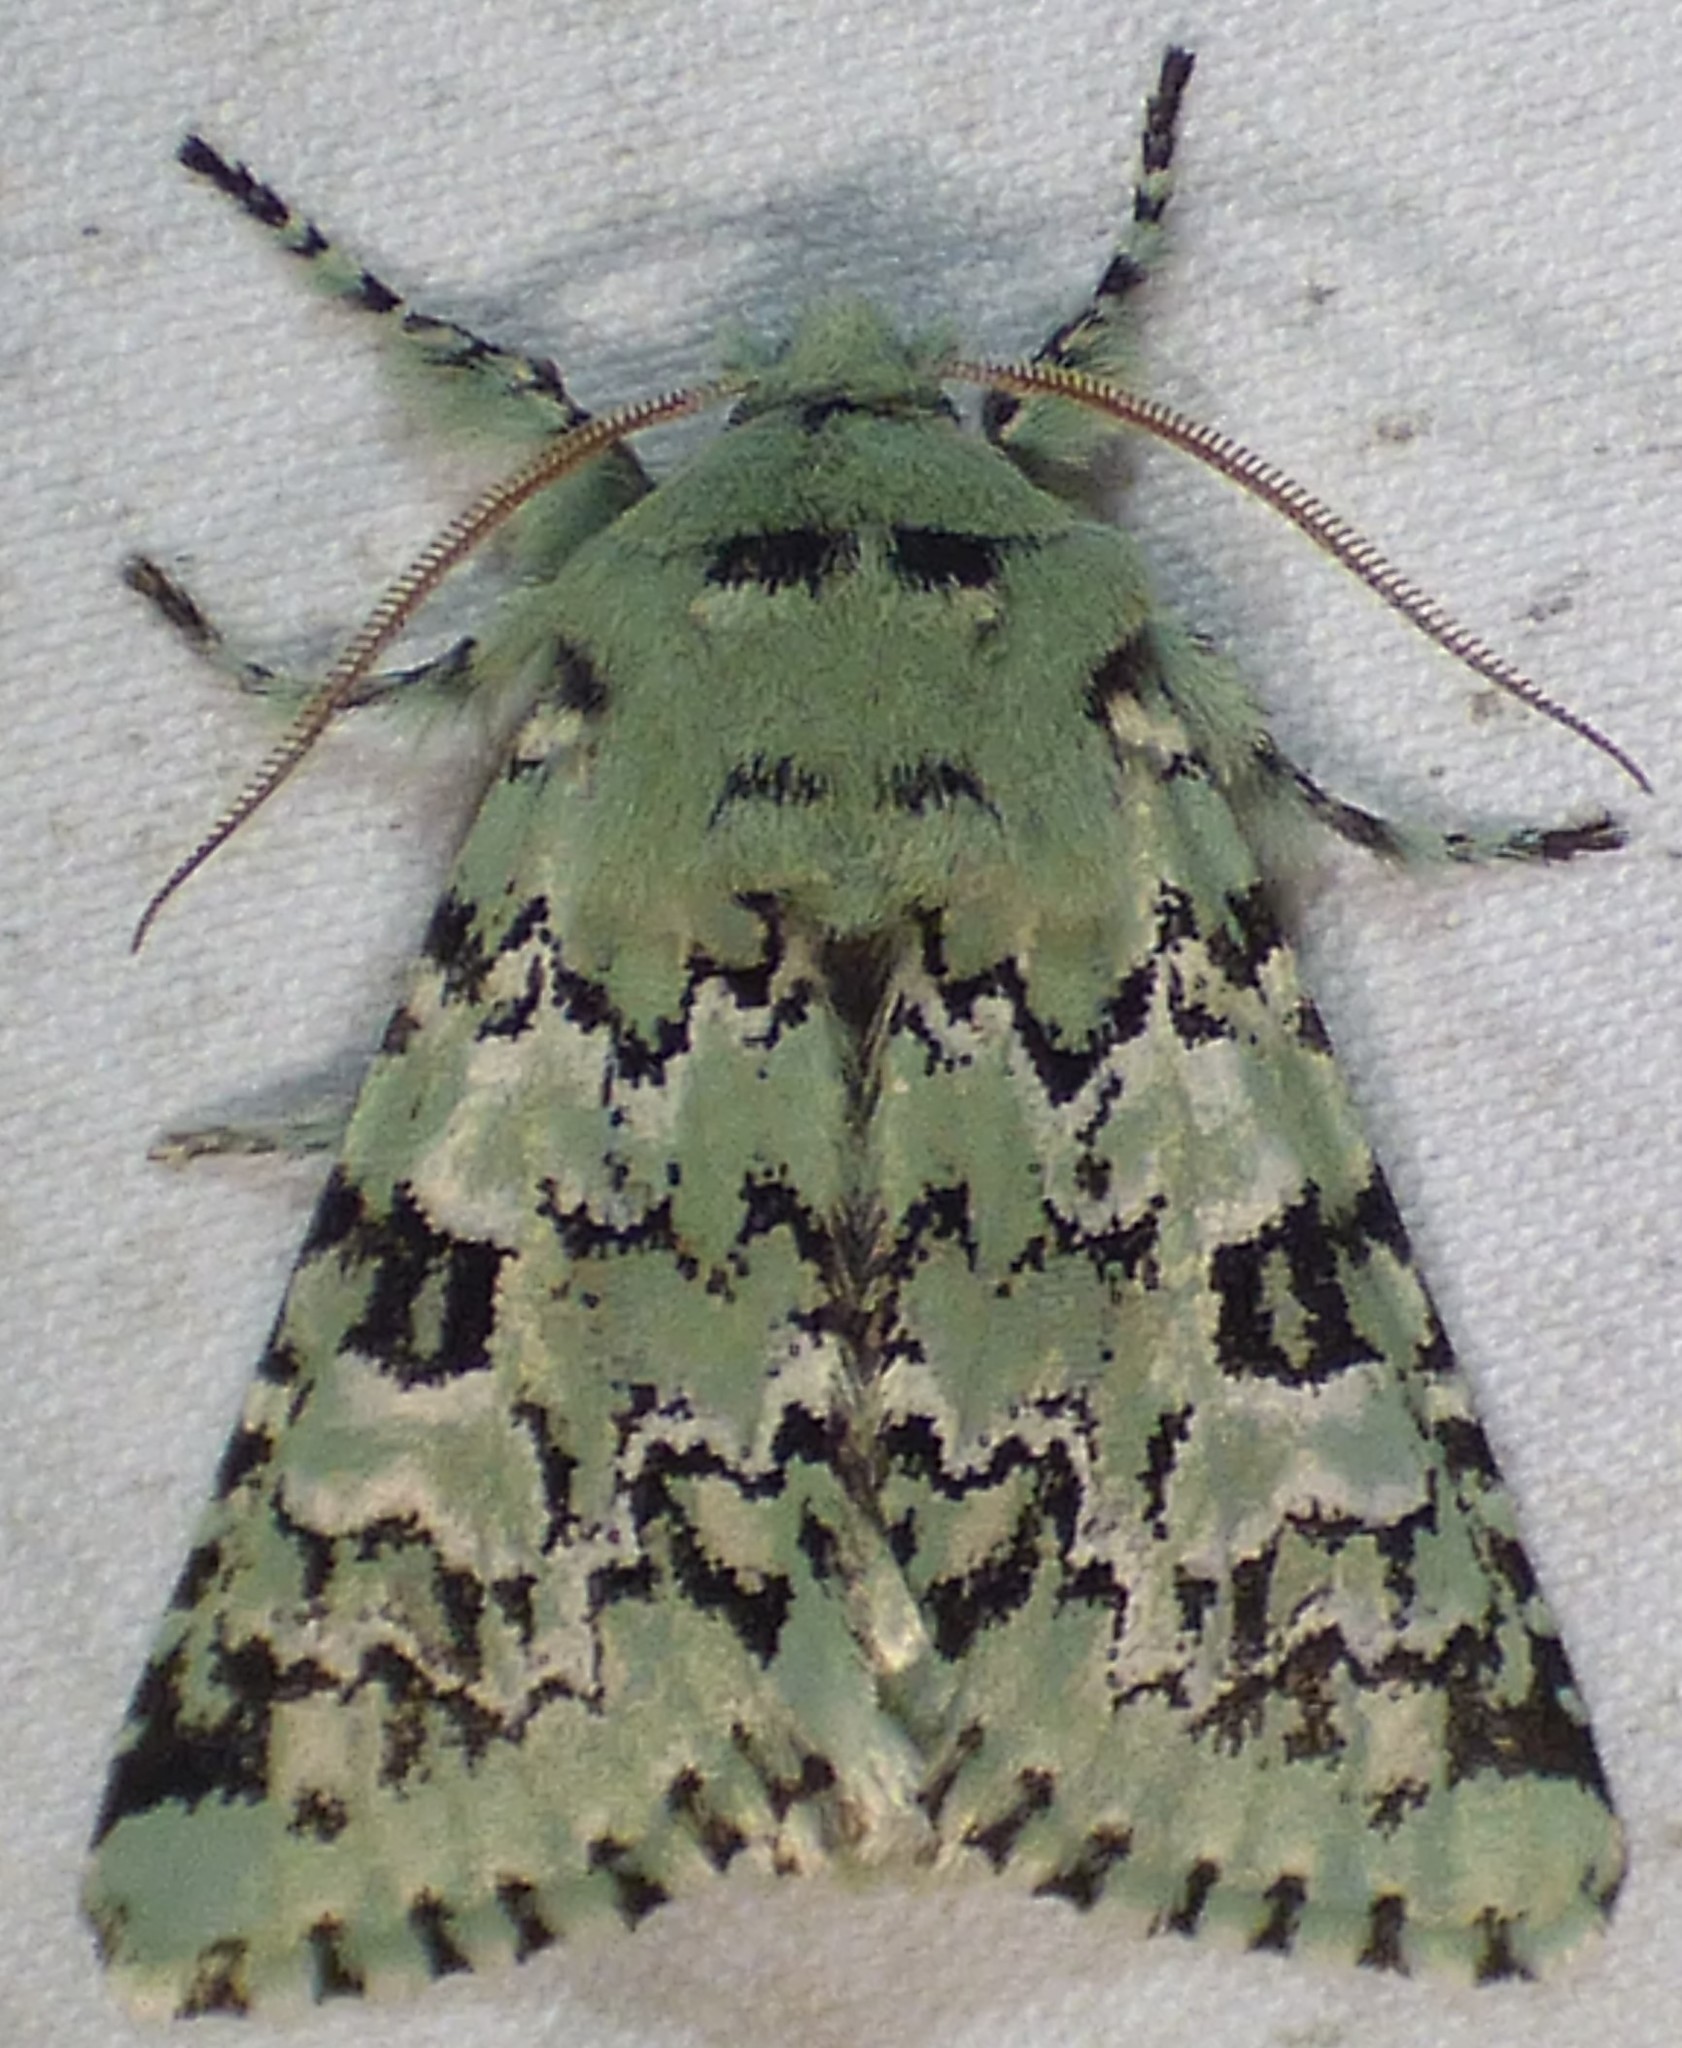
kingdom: Animalia
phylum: Arthropoda
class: Insecta
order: Lepidoptera
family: Noctuidae
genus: Feralia
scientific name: Feralia major
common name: Major sallow
